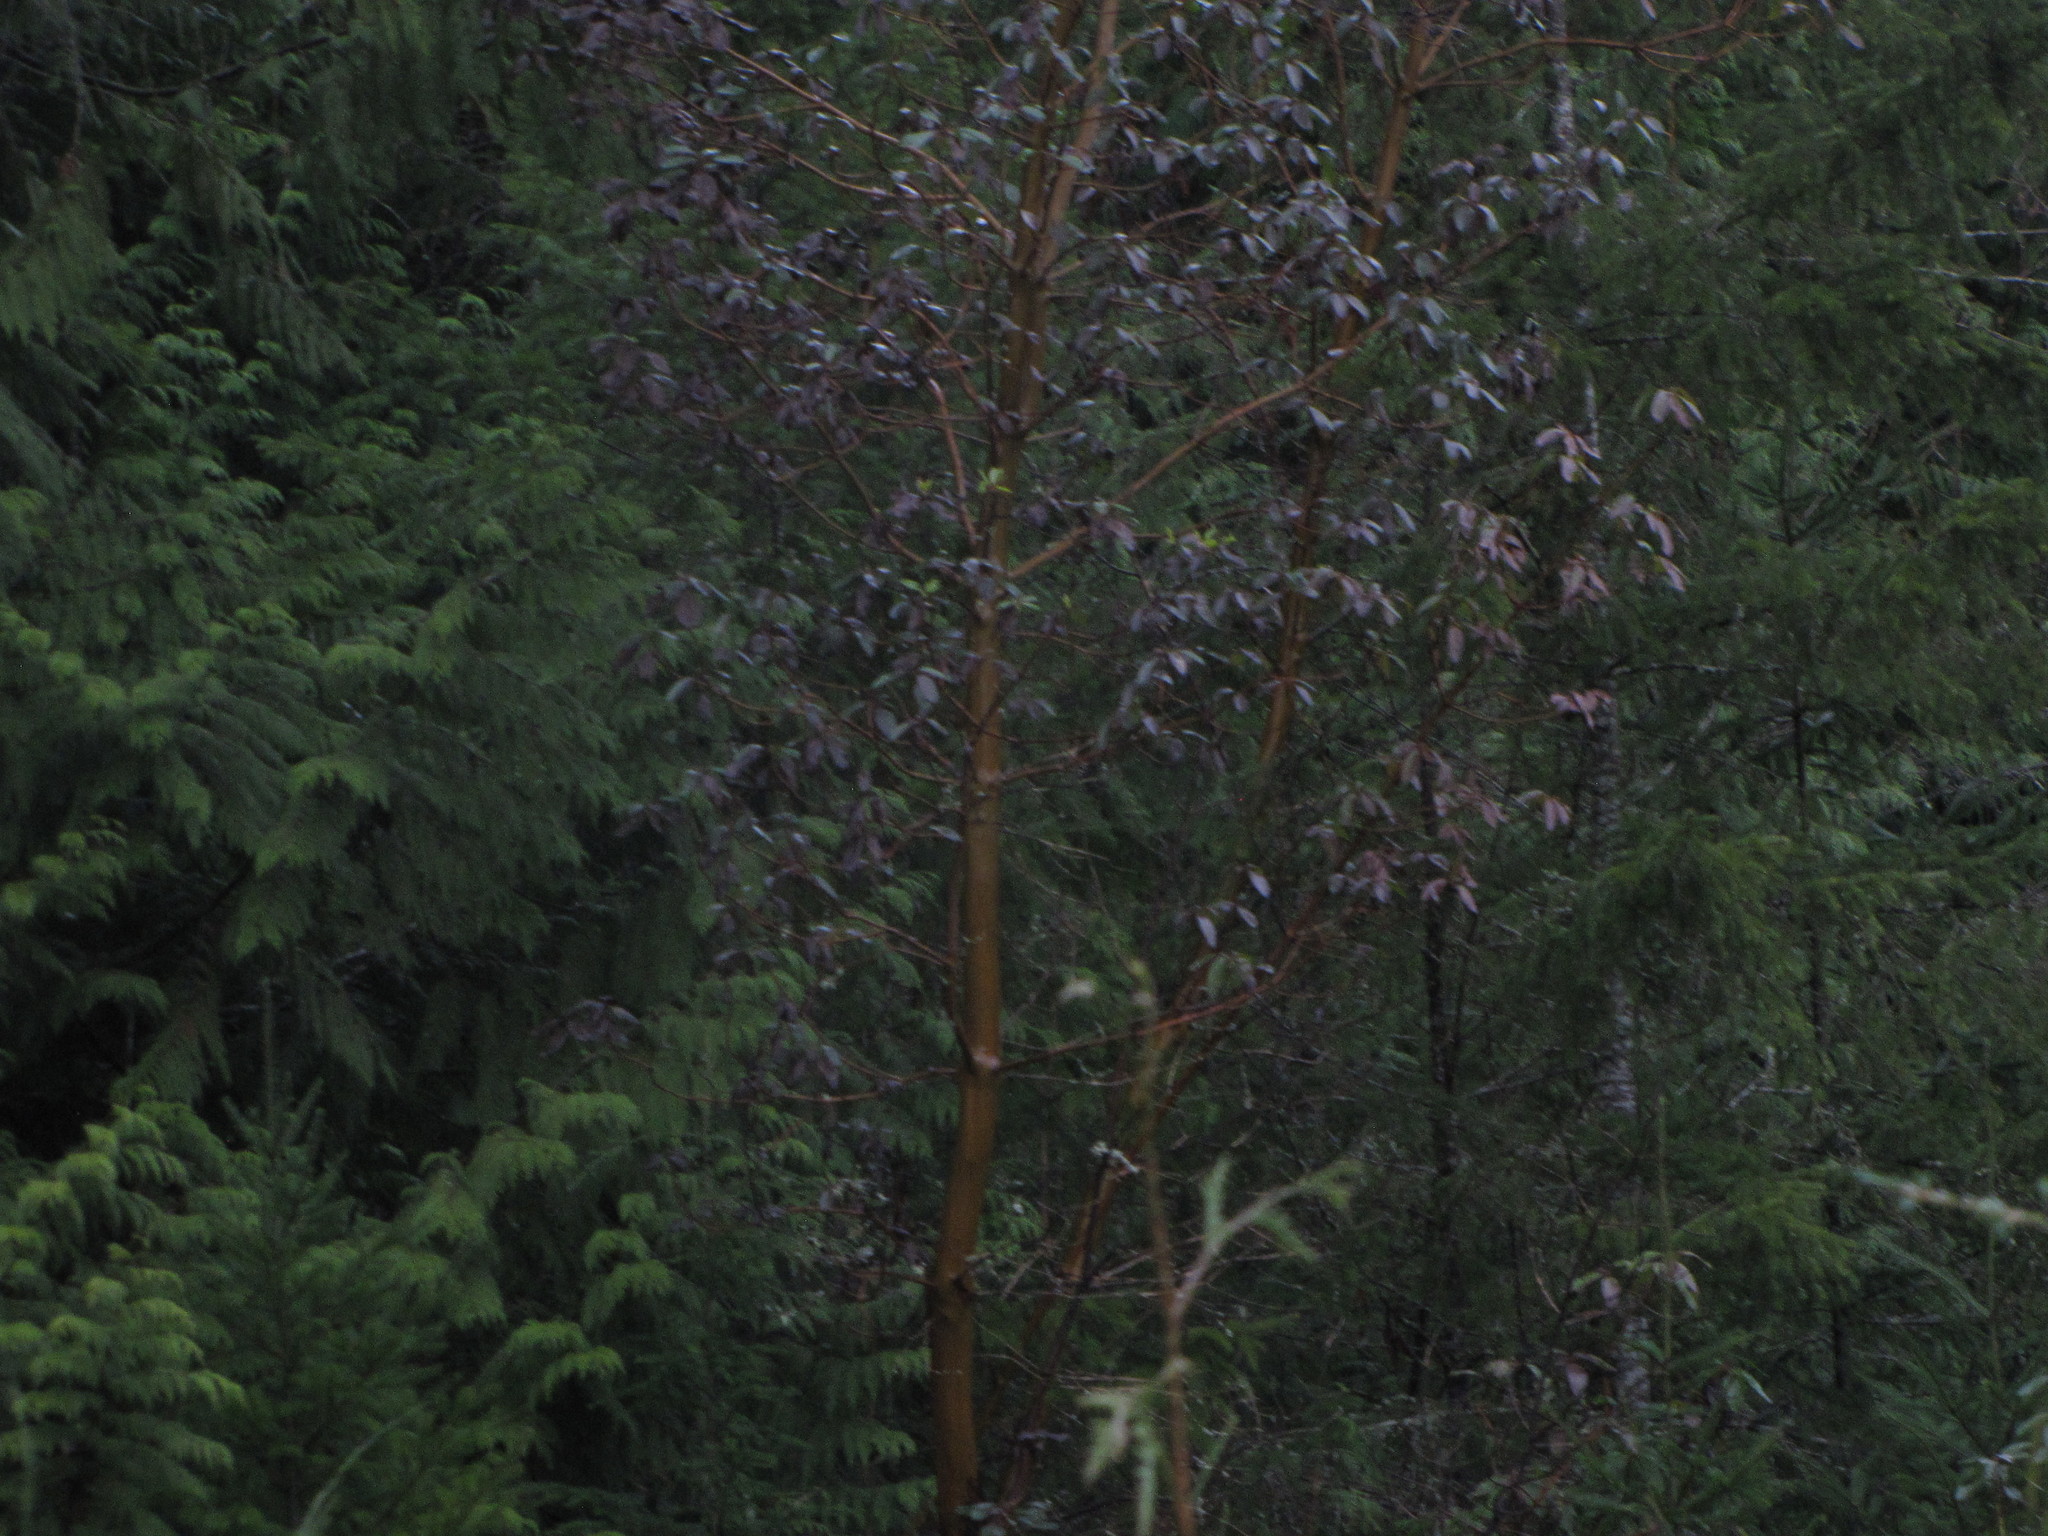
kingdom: Plantae
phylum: Tracheophyta
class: Magnoliopsida
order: Ericales
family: Ericaceae
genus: Arbutus
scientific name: Arbutus menziesii
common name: Pacific madrone
